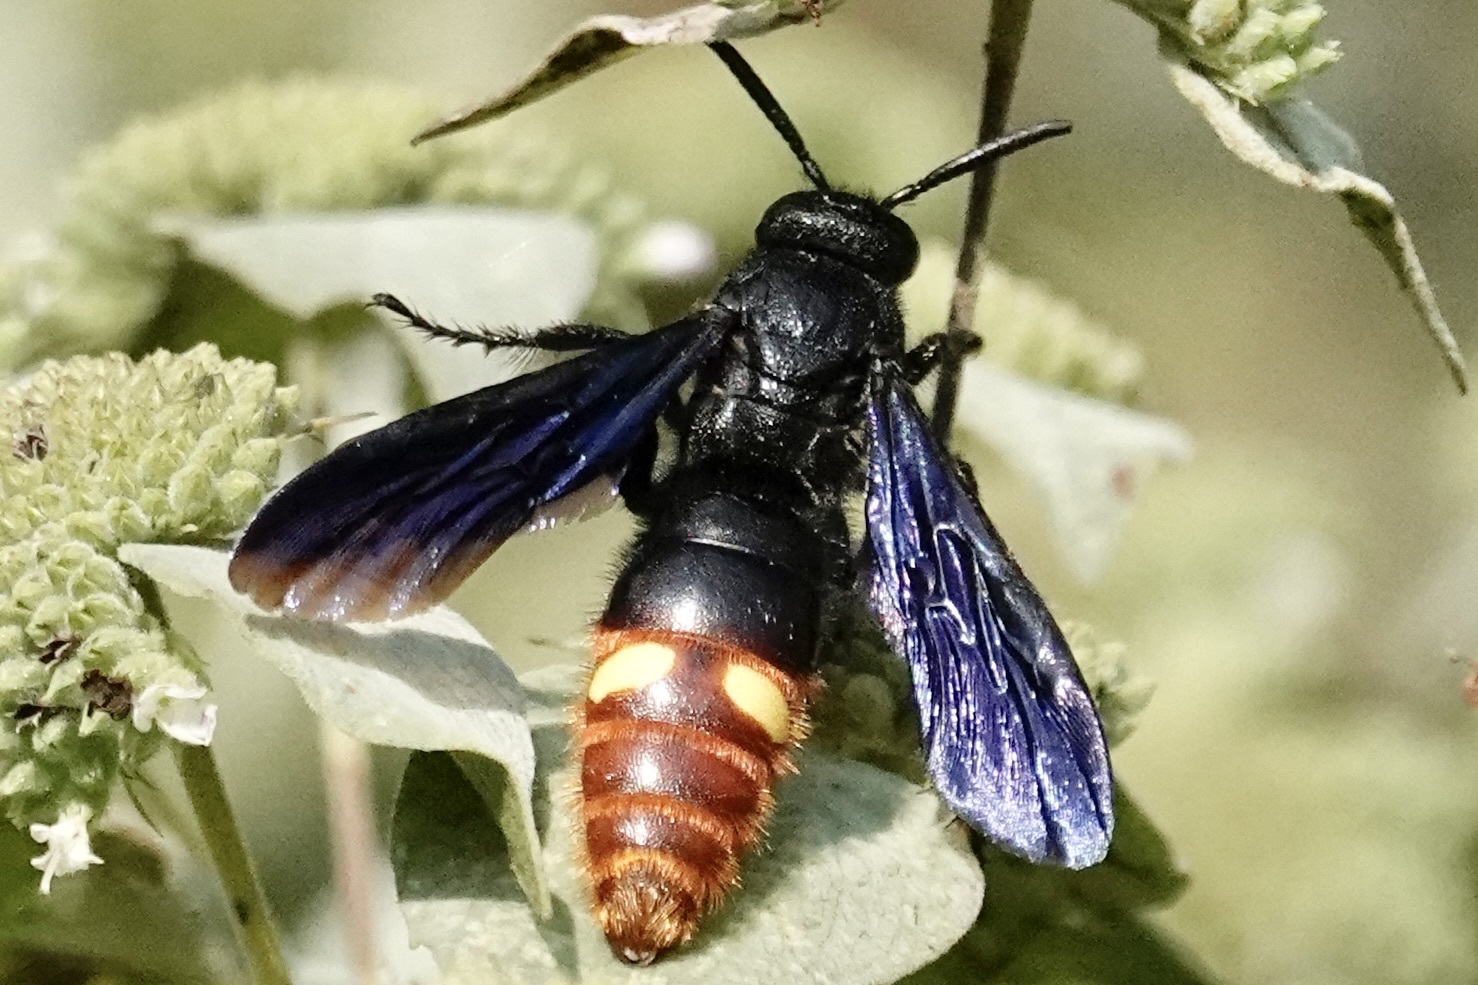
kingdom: Animalia
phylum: Arthropoda
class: Insecta
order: Hymenoptera
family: Scoliidae
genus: Scolia
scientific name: Scolia dubia
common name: Blue-winged scoliid wasp
